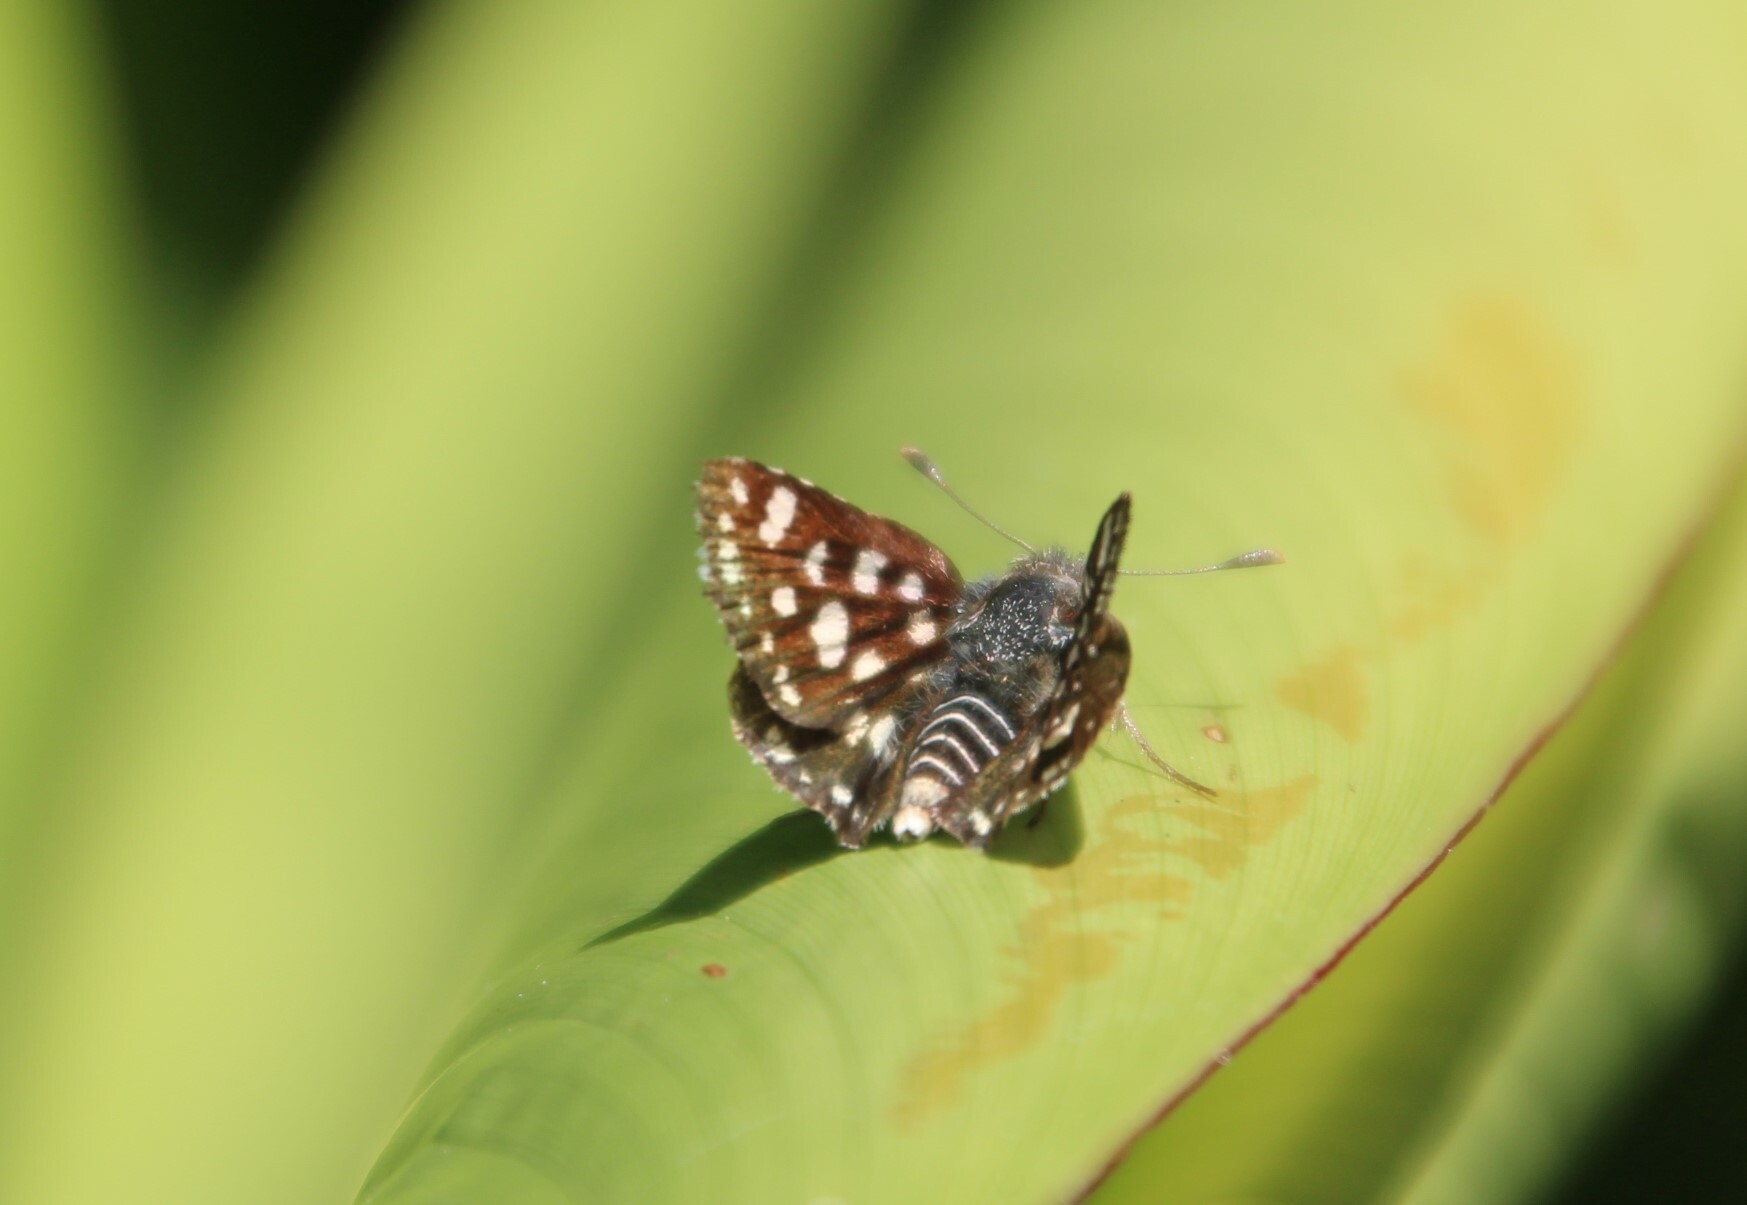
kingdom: Animalia
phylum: Arthropoda
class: Insecta
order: Lepidoptera
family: Hesperiidae
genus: Spialia
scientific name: Spialia spio
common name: Mountain sandman
